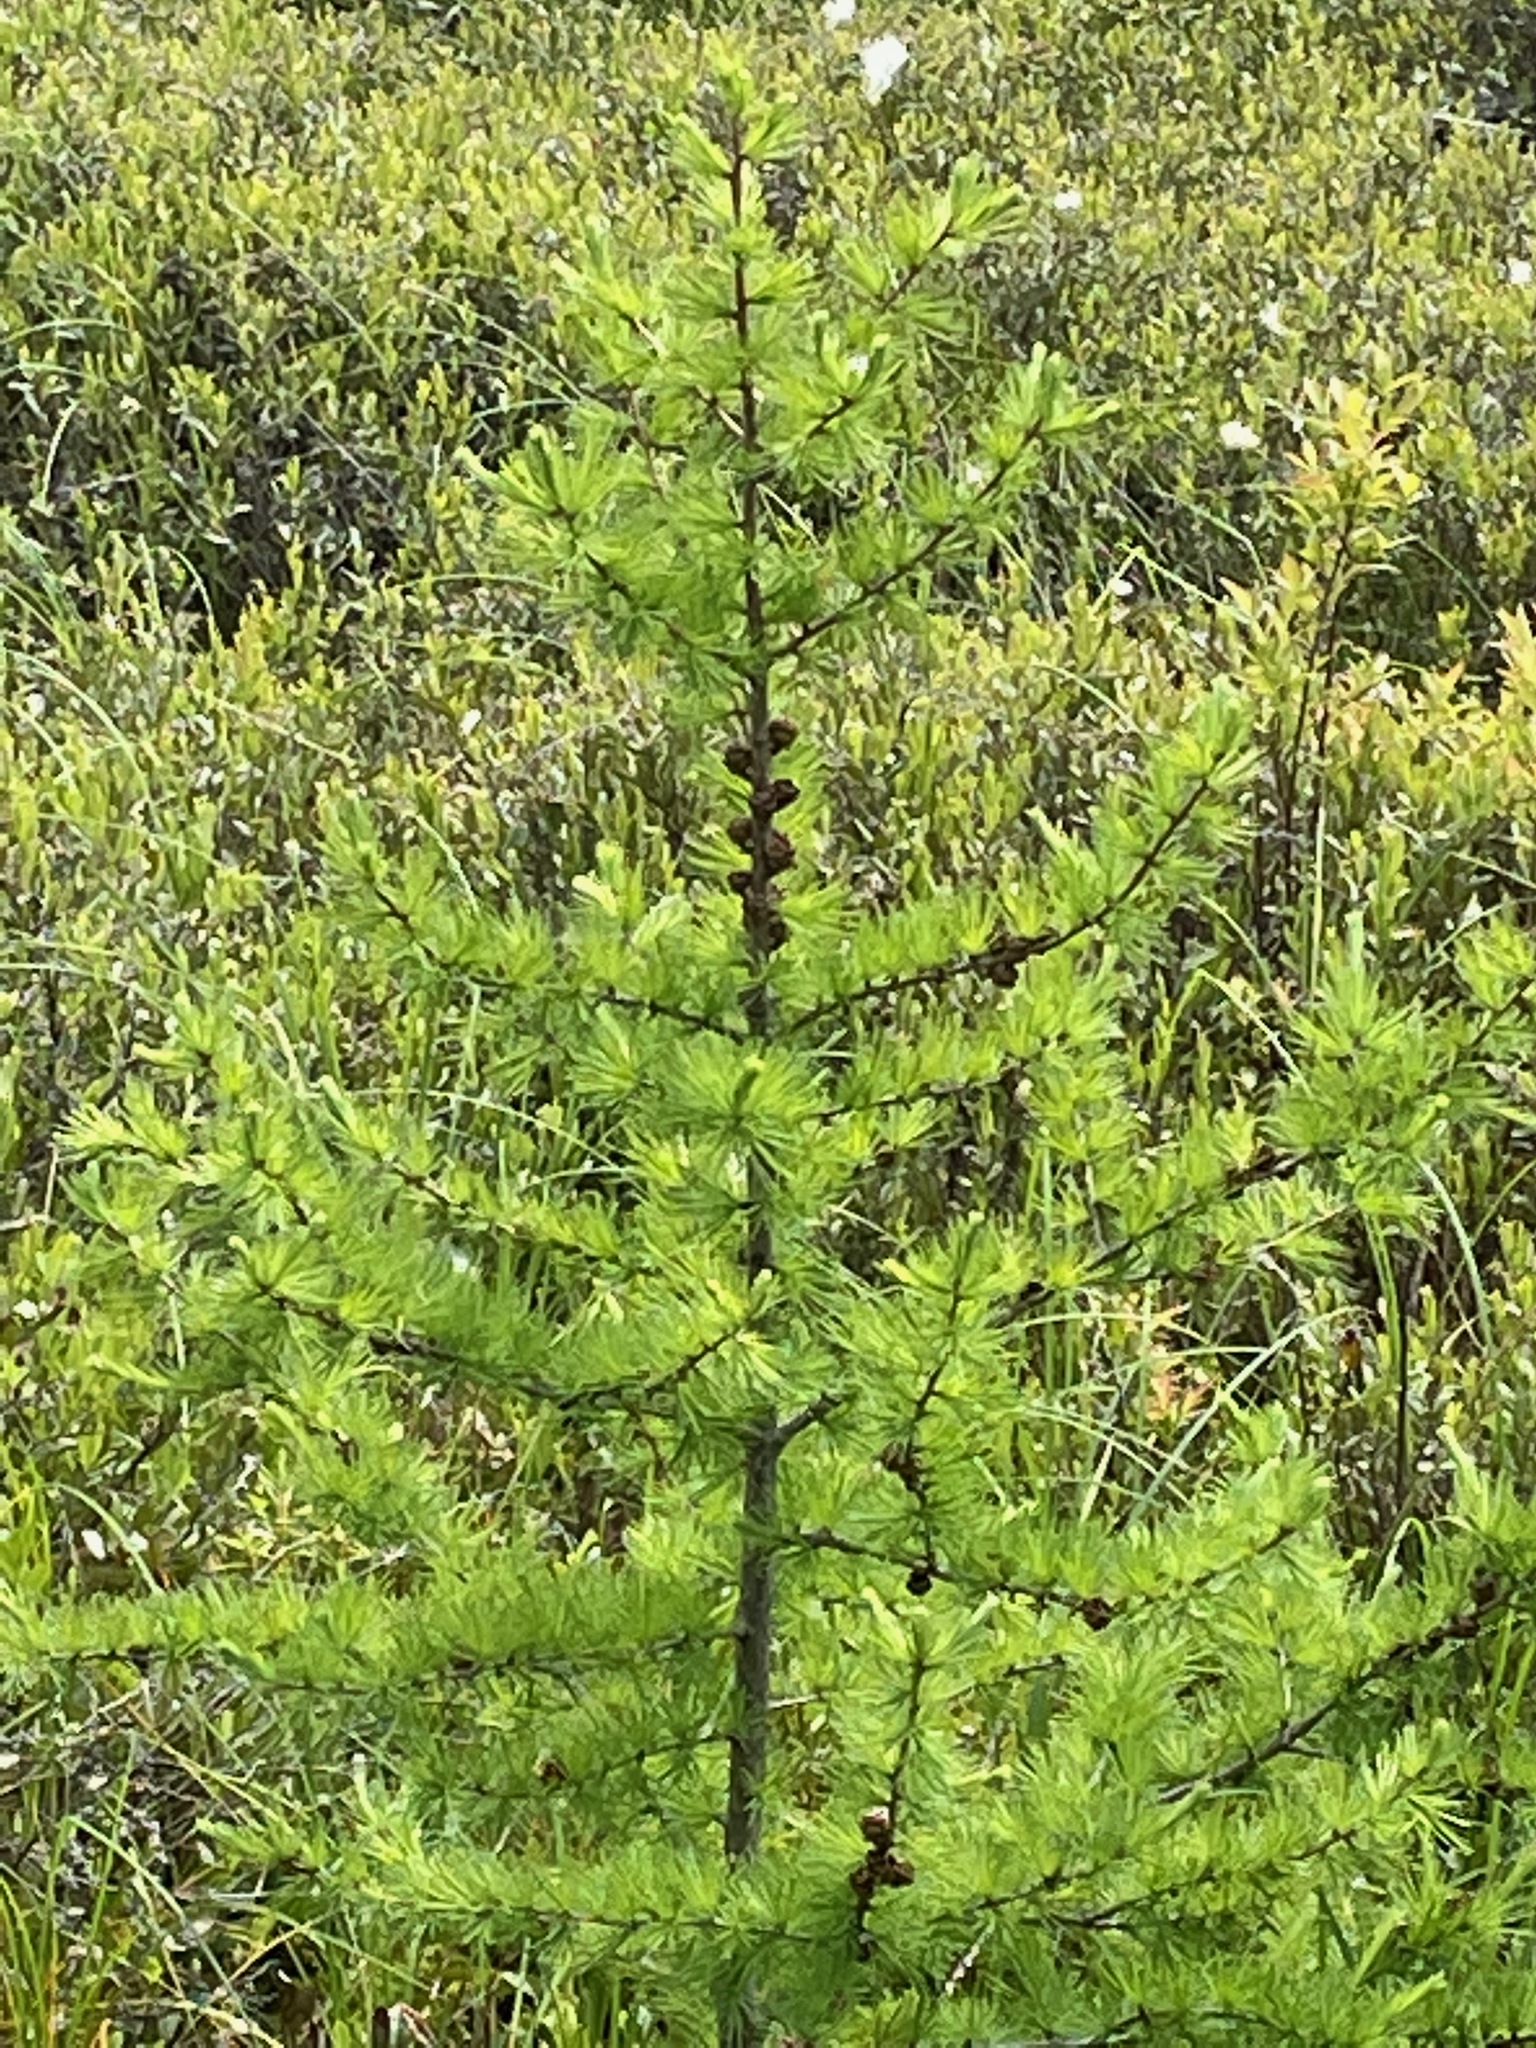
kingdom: Plantae
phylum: Tracheophyta
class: Pinopsida
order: Pinales
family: Pinaceae
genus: Larix
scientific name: Larix laricina
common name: American larch
